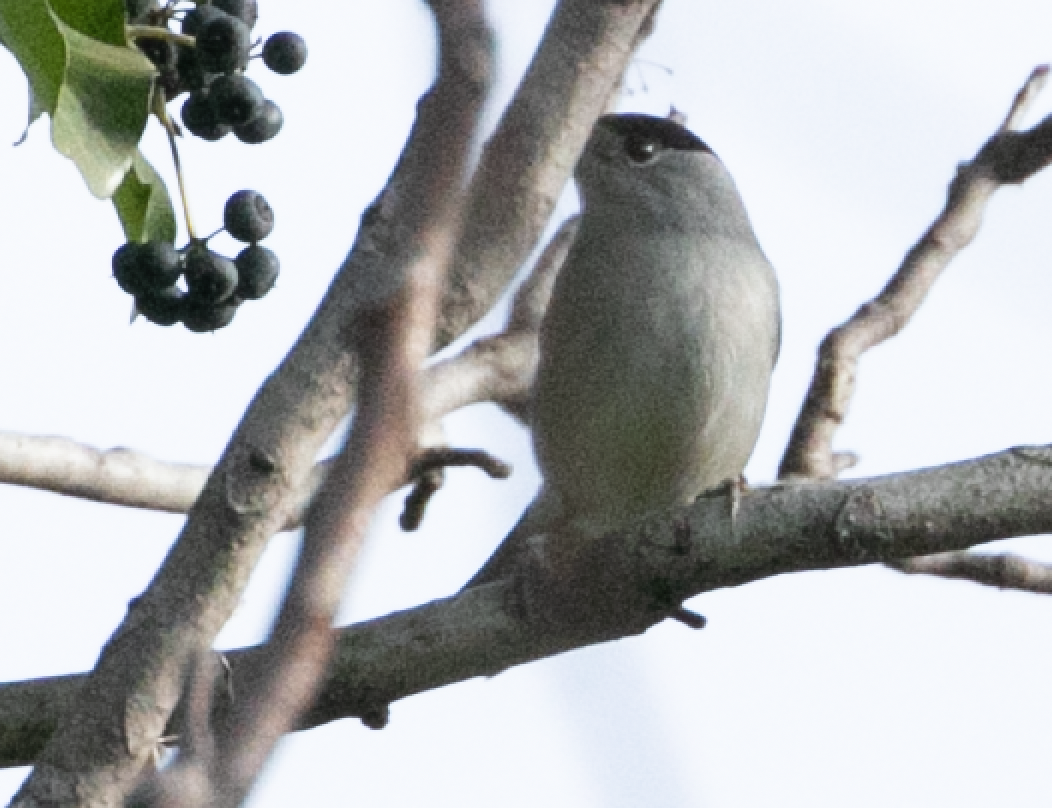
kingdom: Animalia
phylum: Chordata
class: Aves
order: Passeriformes
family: Sylviidae
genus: Sylvia
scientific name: Sylvia atricapilla
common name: Eurasian blackcap
